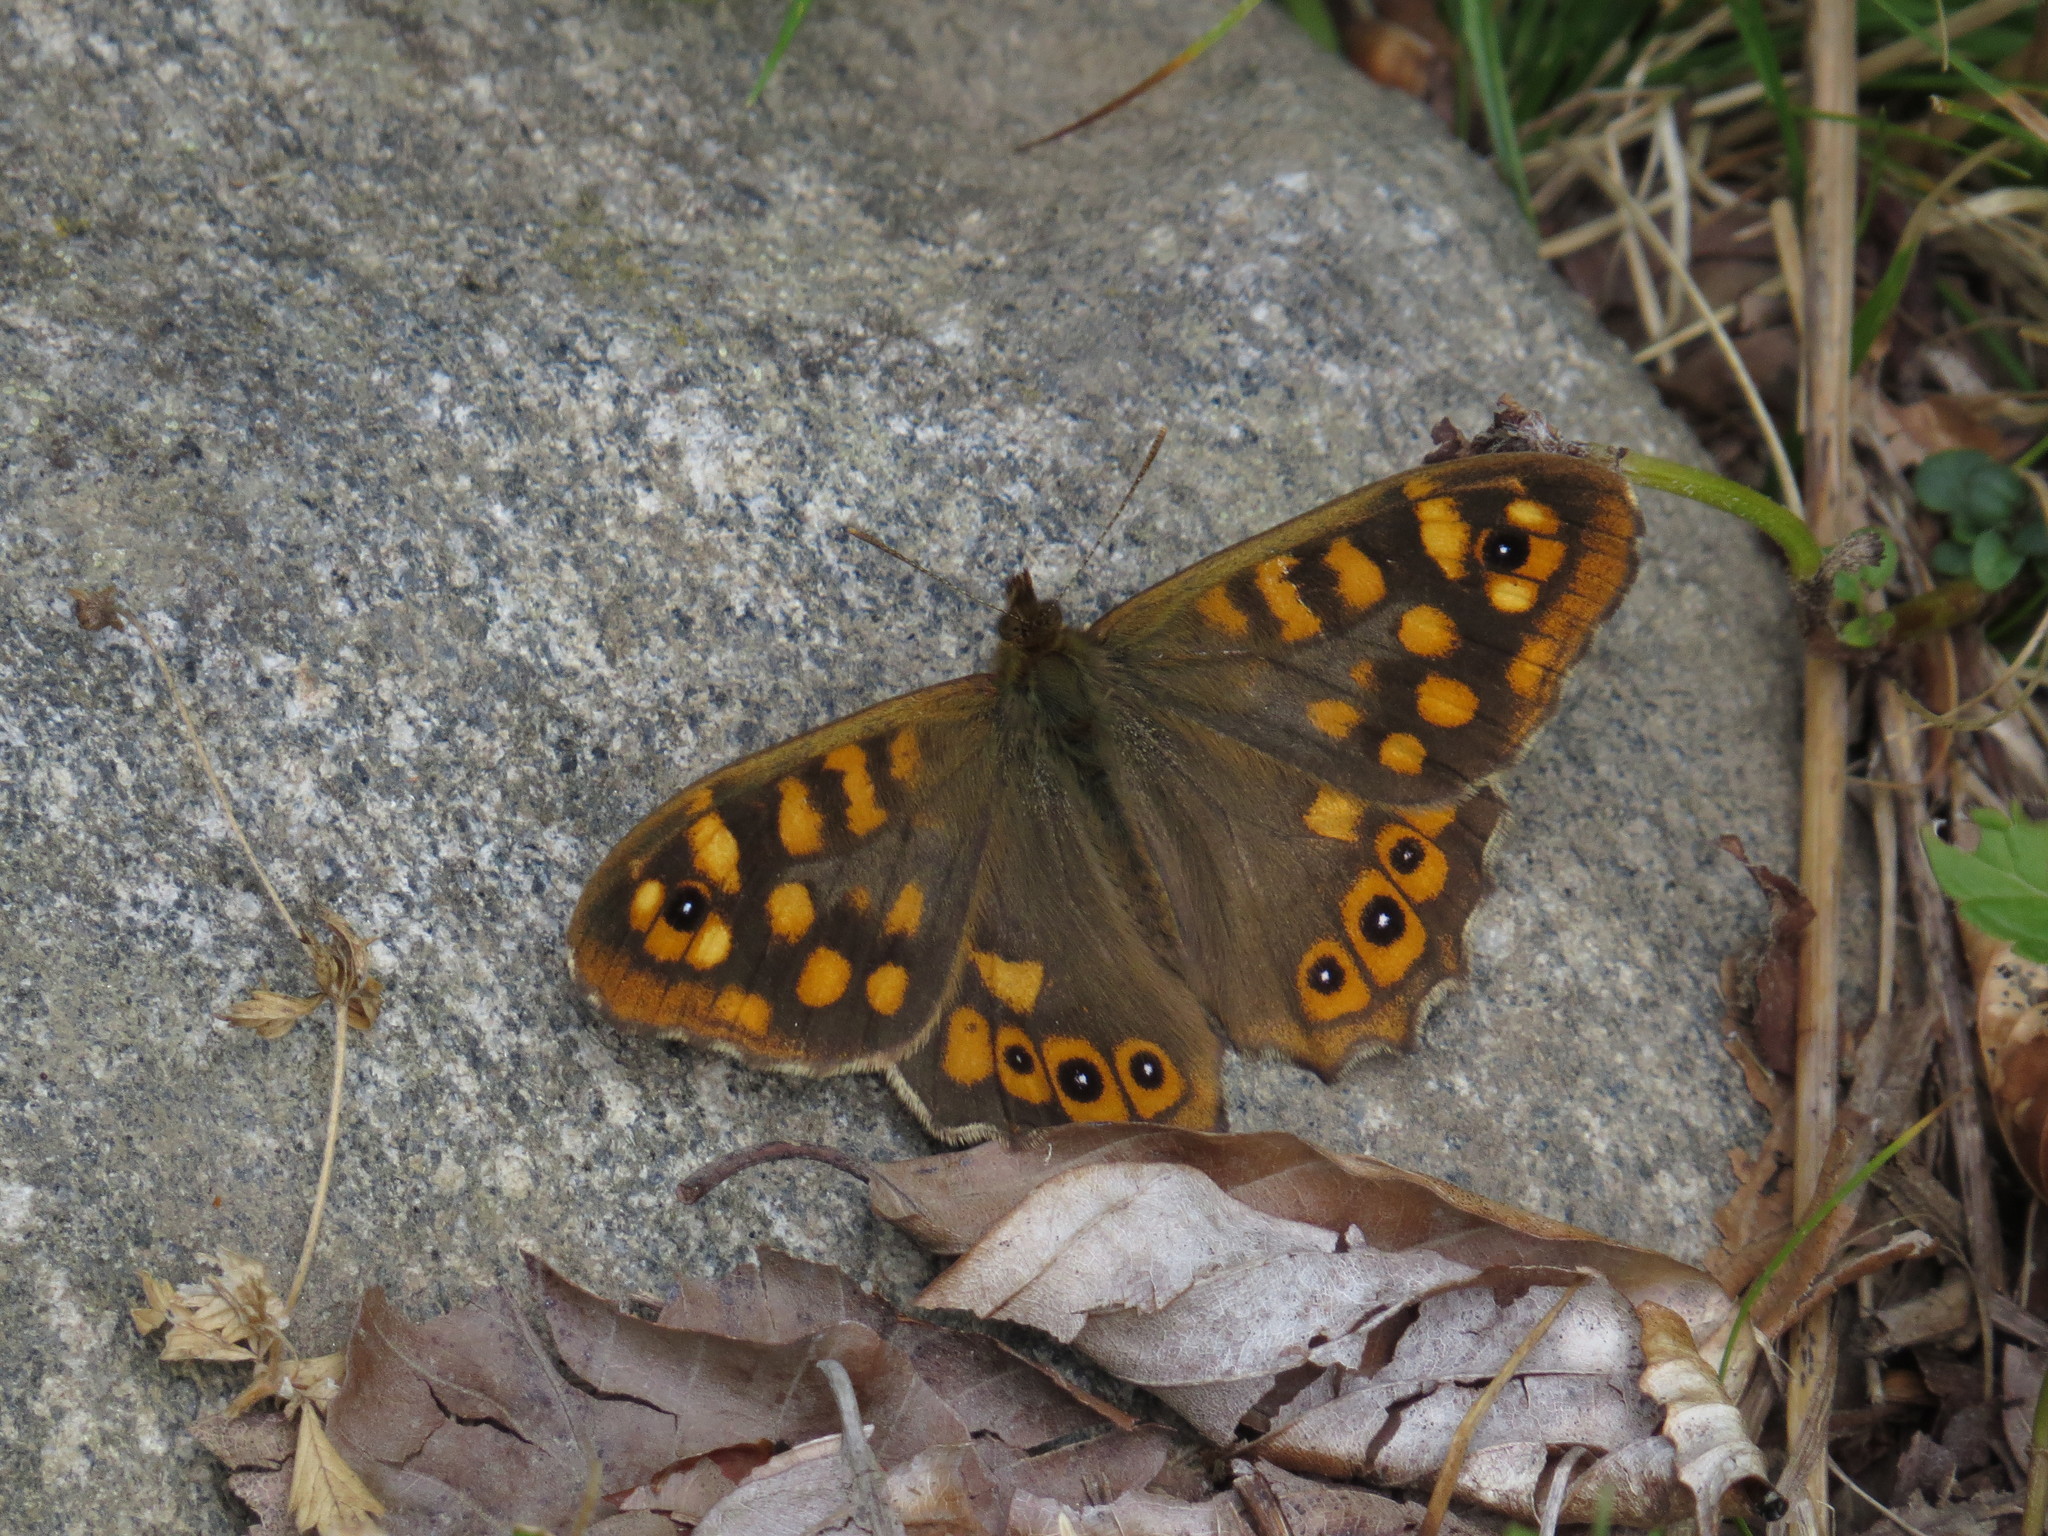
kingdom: Animalia
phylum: Arthropoda
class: Insecta
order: Lepidoptera
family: Nymphalidae
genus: Pararge
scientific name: Pararge aegeria
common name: Speckled wood
